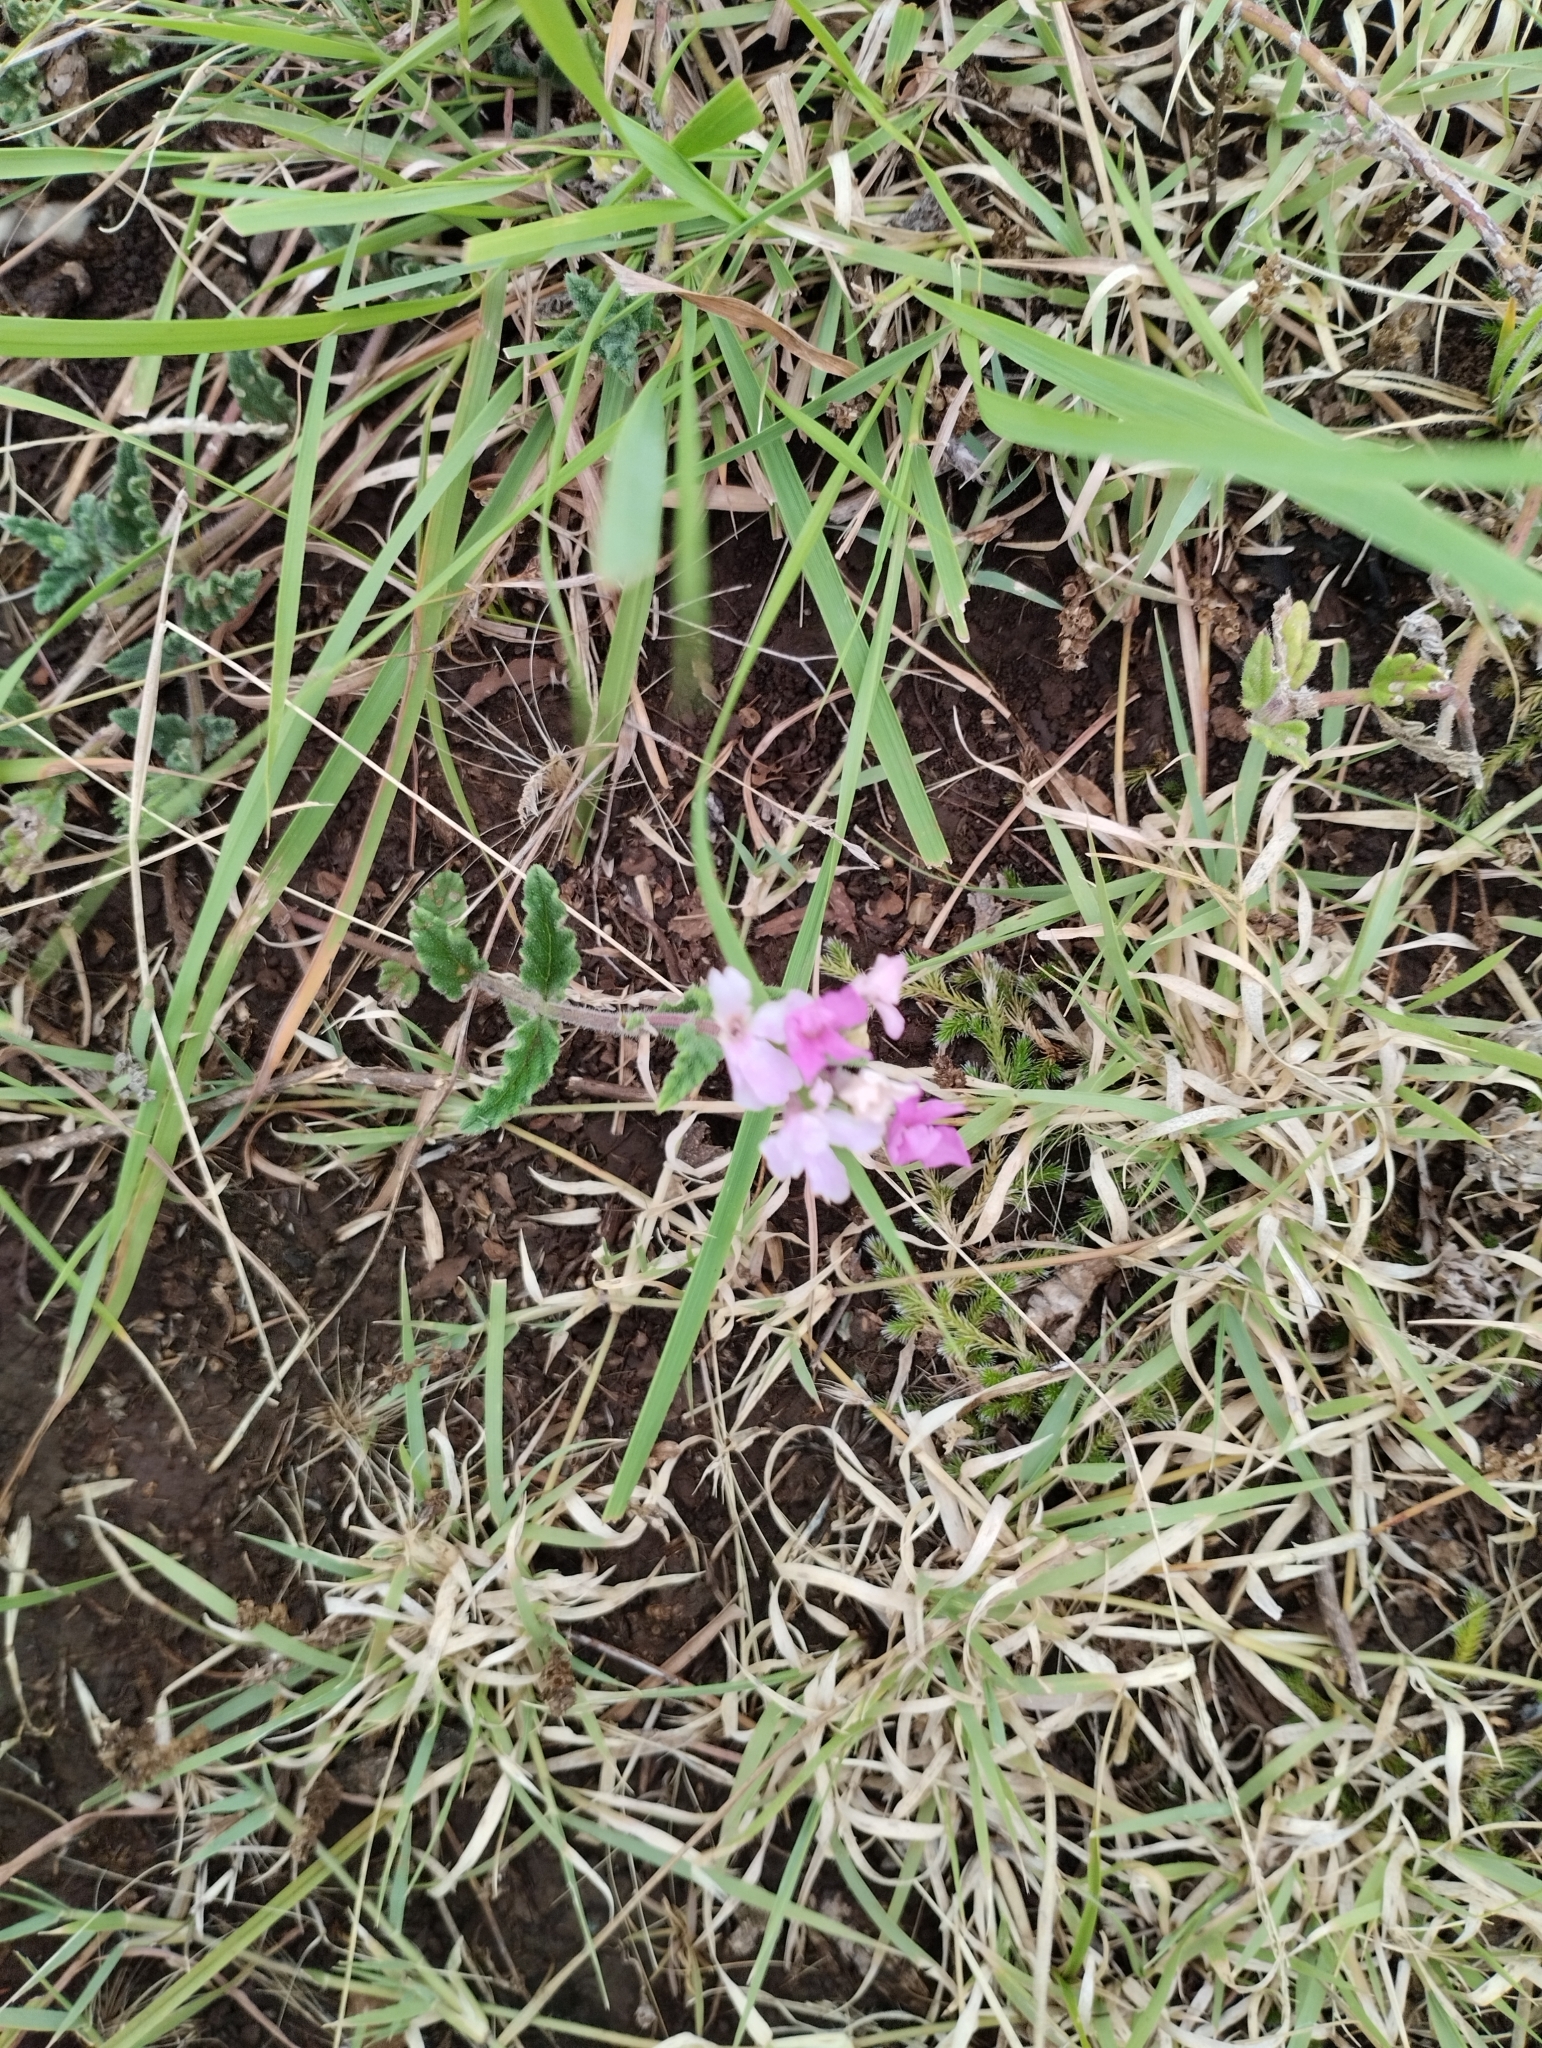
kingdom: Plantae
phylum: Tracheophyta
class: Magnoliopsida
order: Lamiales
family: Verbenaceae
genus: Verbena
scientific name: Verbena platensis
